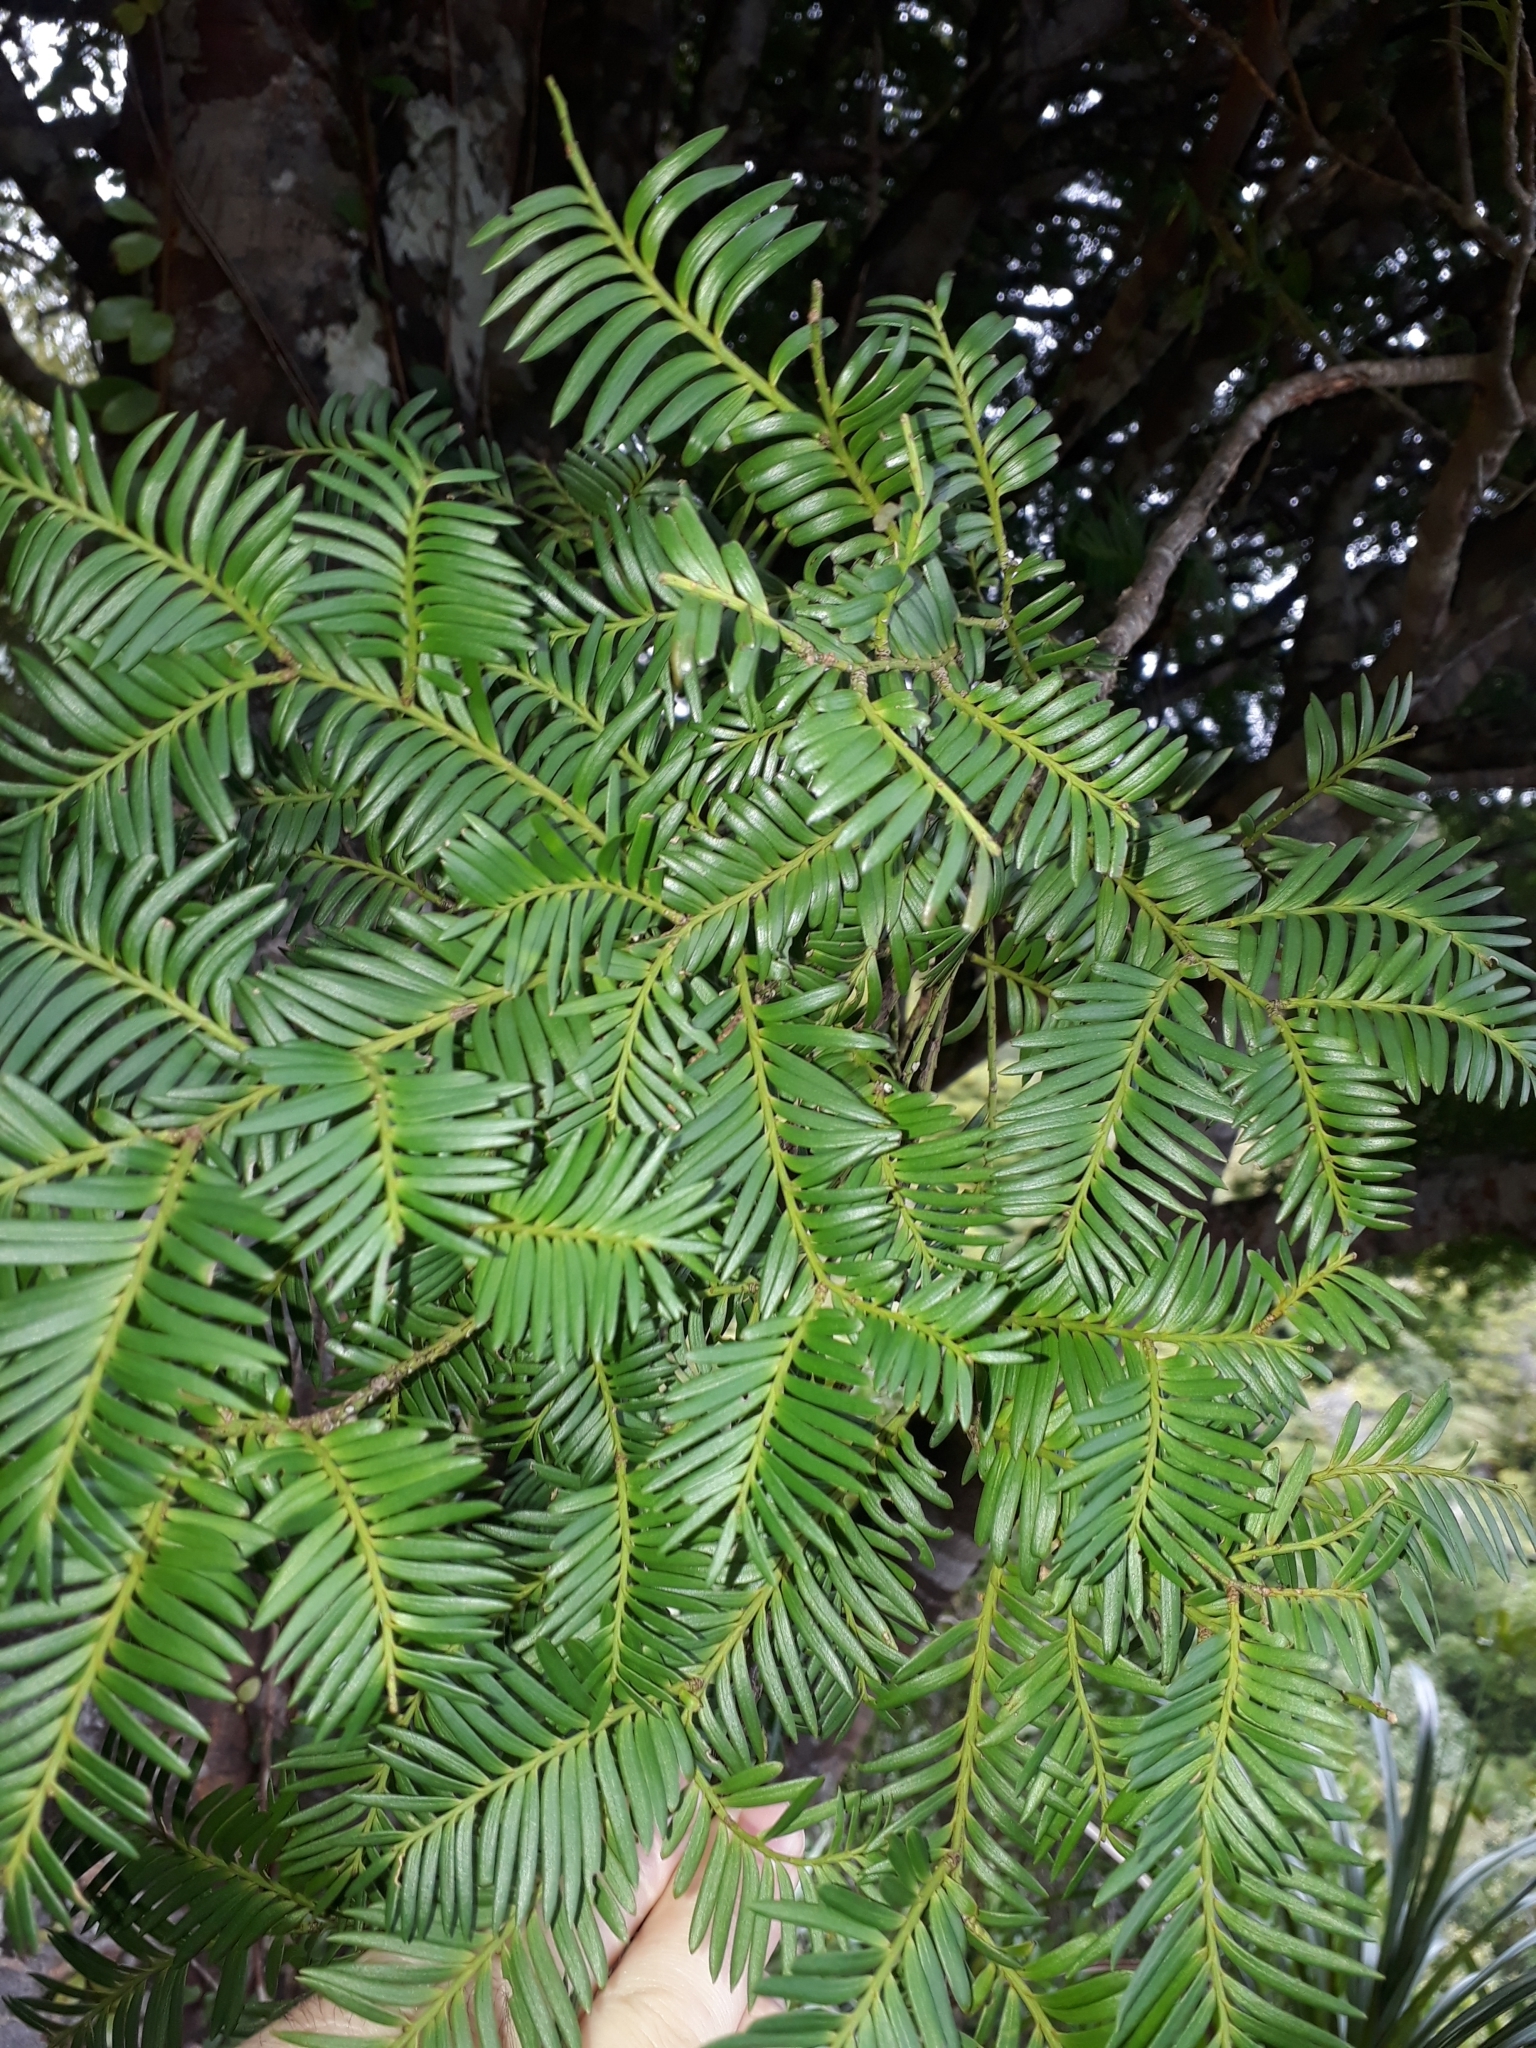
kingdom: Plantae
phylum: Tracheophyta
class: Pinopsida
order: Pinales
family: Podocarpaceae
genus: Prumnopitys
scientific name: Prumnopitys ferruginea
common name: Brown pine
